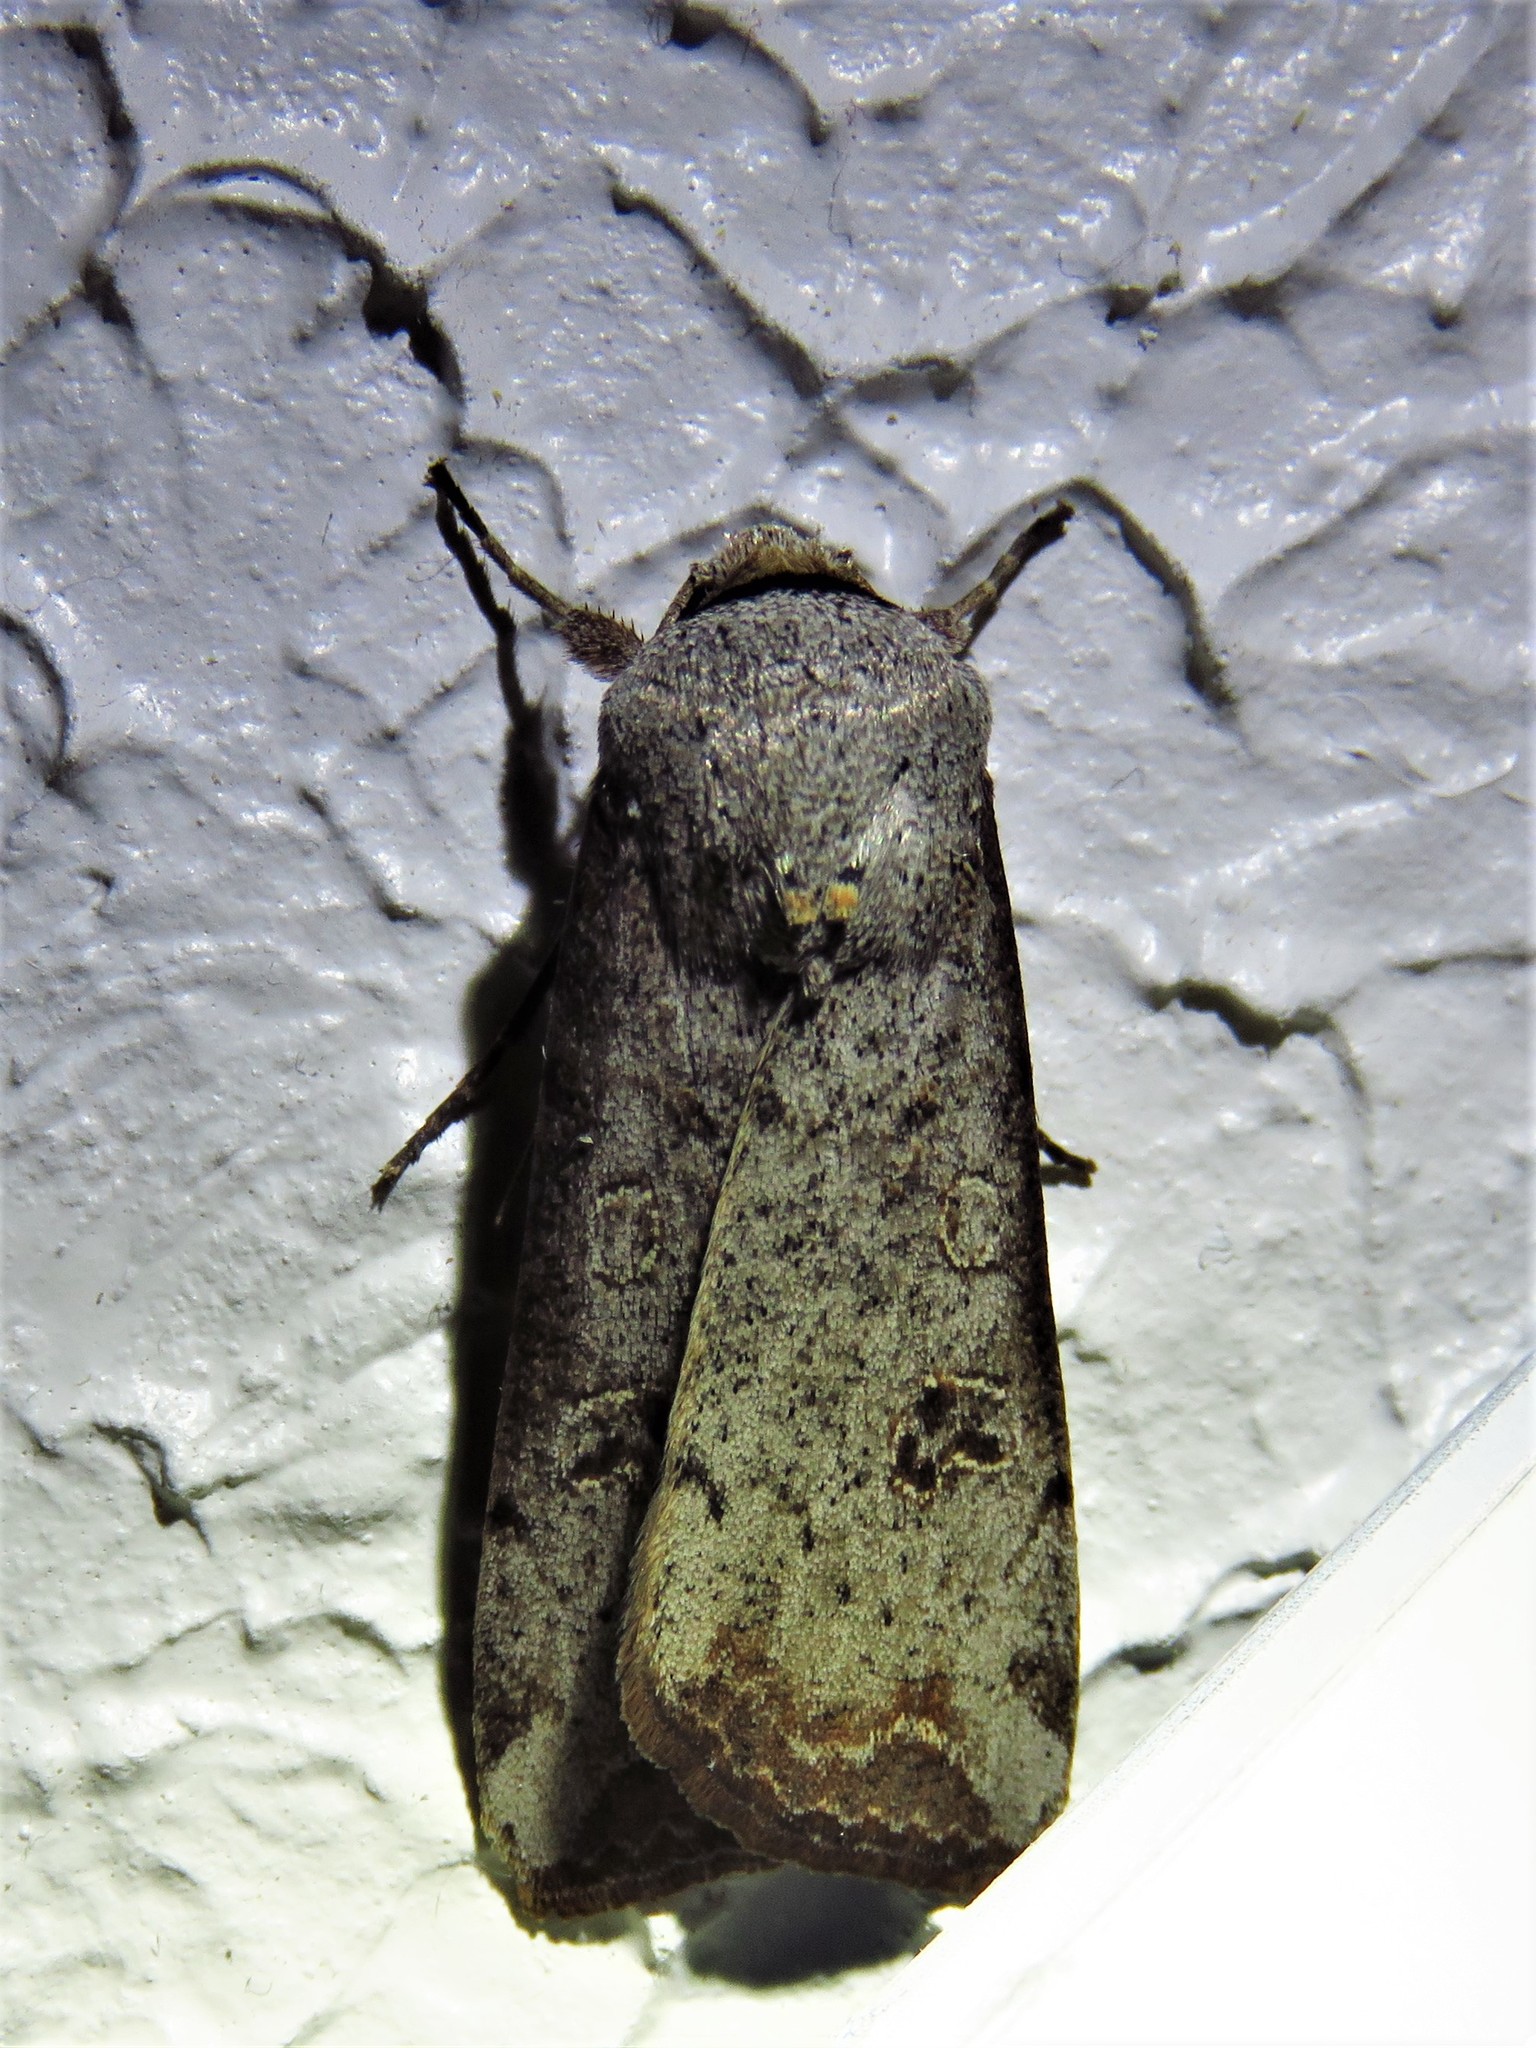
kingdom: Animalia
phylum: Arthropoda
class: Insecta
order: Lepidoptera
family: Noctuidae
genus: Anicla
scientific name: Anicla infecta
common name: Green cutworm
